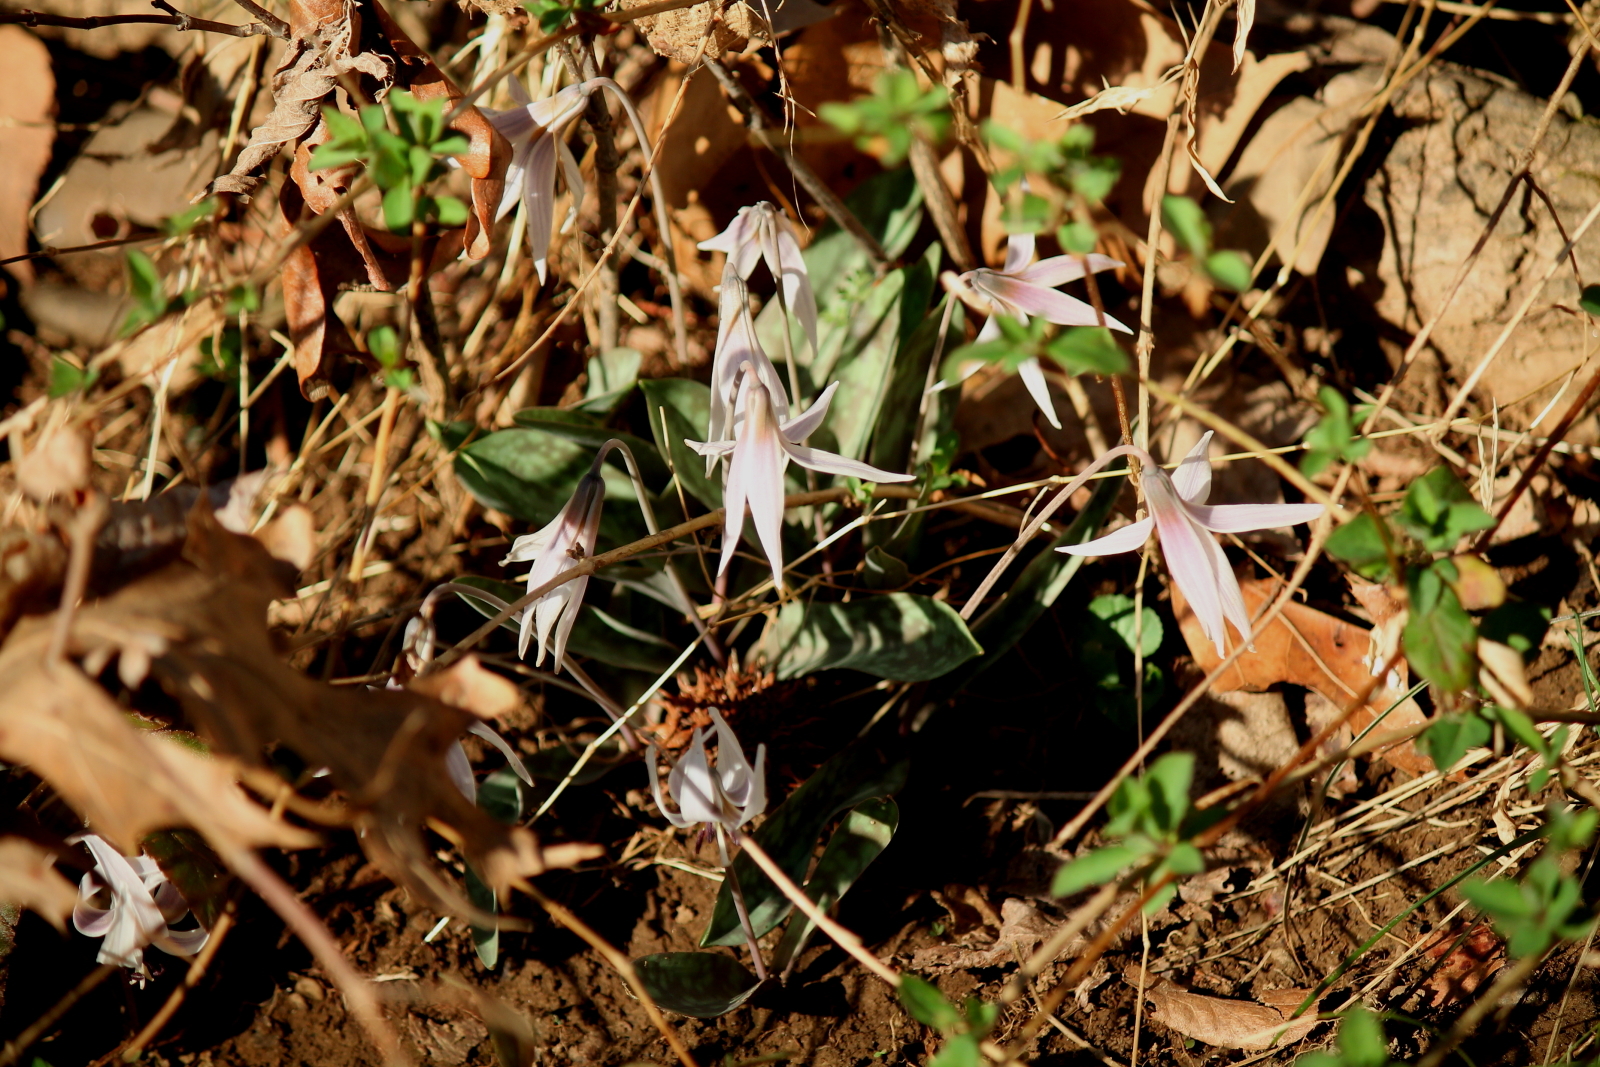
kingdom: Plantae
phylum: Tracheophyta
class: Liliopsida
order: Liliales
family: Liliaceae
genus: Erythronium
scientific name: Erythronium albidum
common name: White trout-lily
